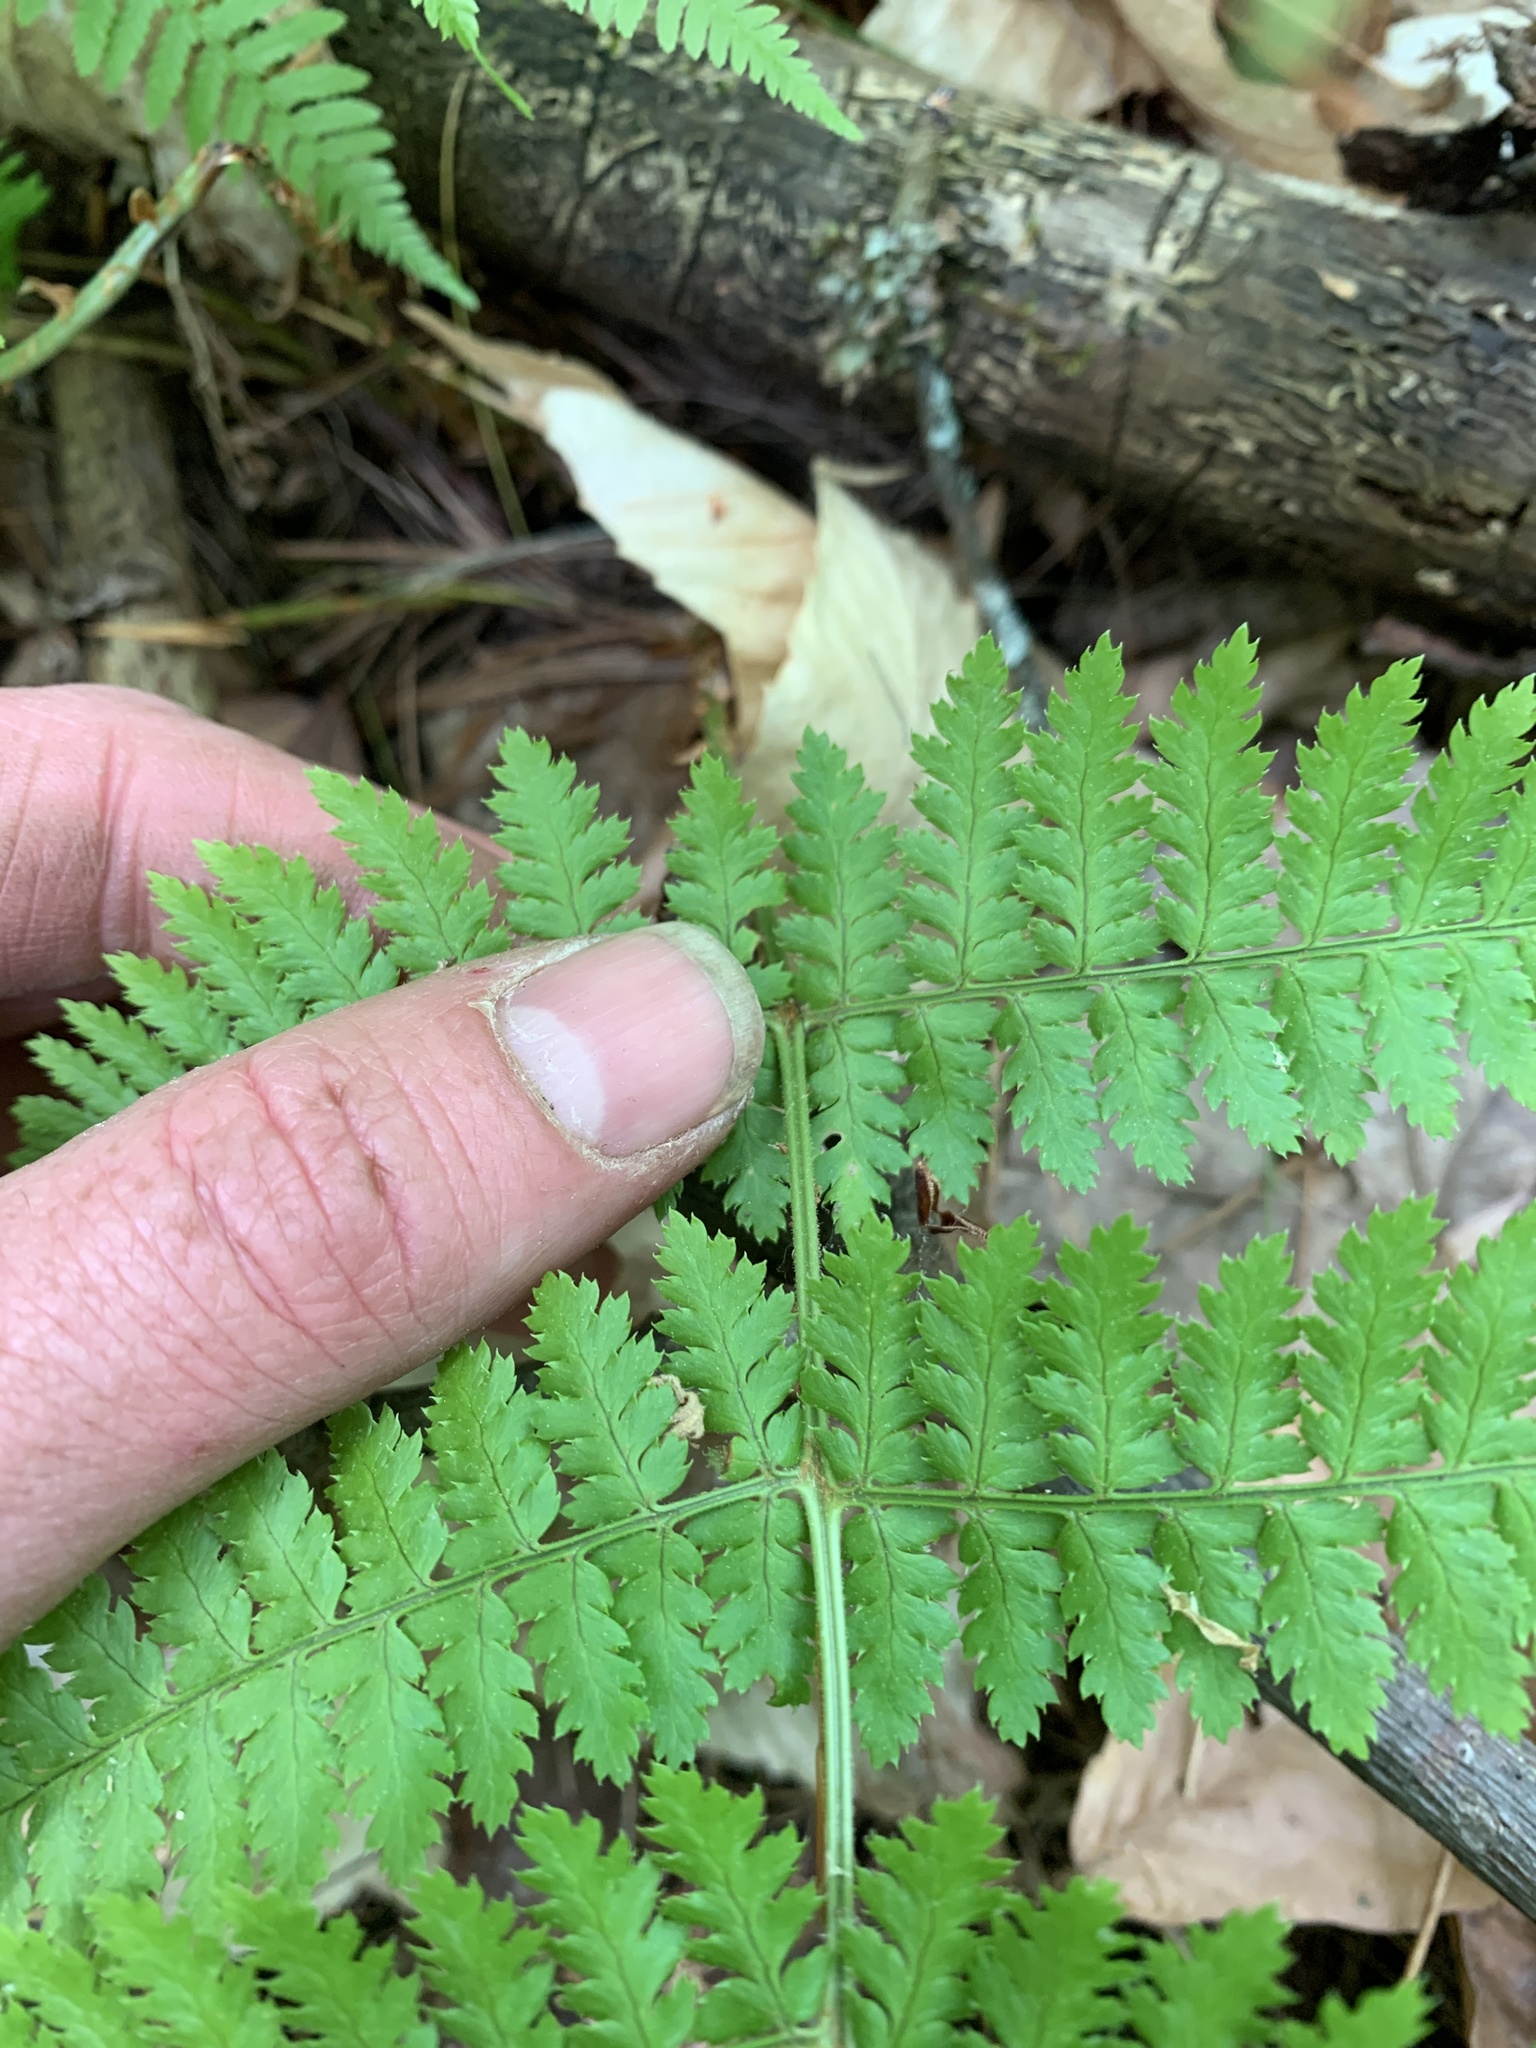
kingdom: Plantae
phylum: Tracheophyta
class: Polypodiopsida
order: Polypodiales
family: Dryopteridaceae
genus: Dryopteris
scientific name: Dryopteris intermedia
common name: Evergreen wood fern
